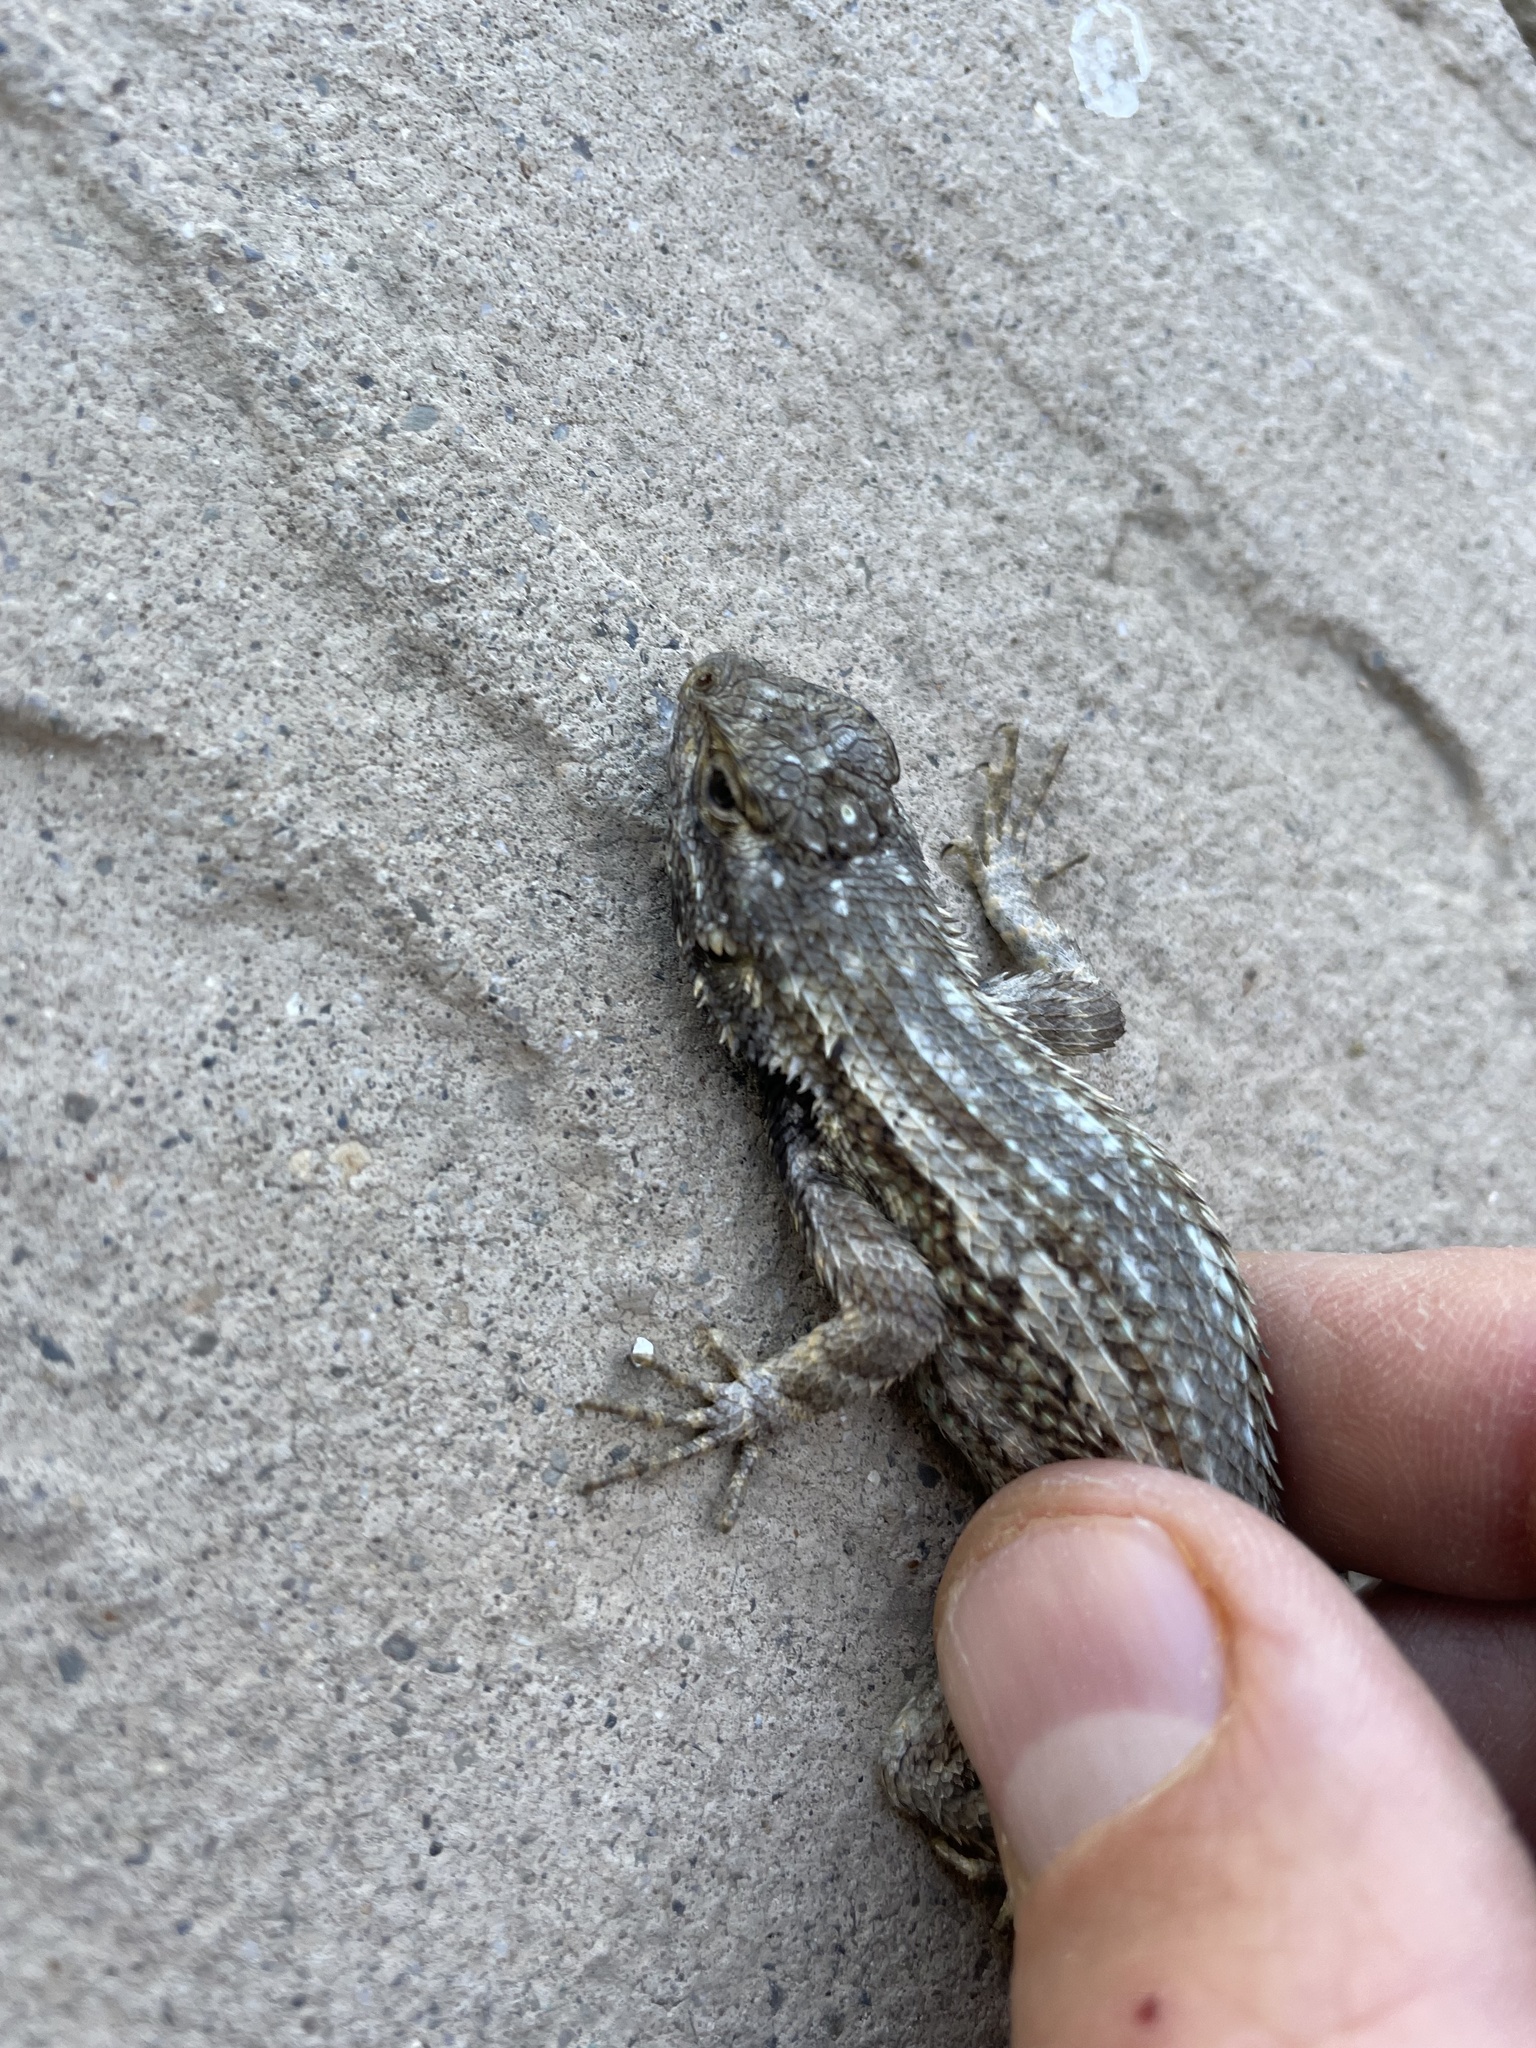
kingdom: Animalia
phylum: Chordata
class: Squamata
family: Phrynosomatidae
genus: Sceloporus
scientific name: Sceloporus occidentalis
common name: Western fence lizard
